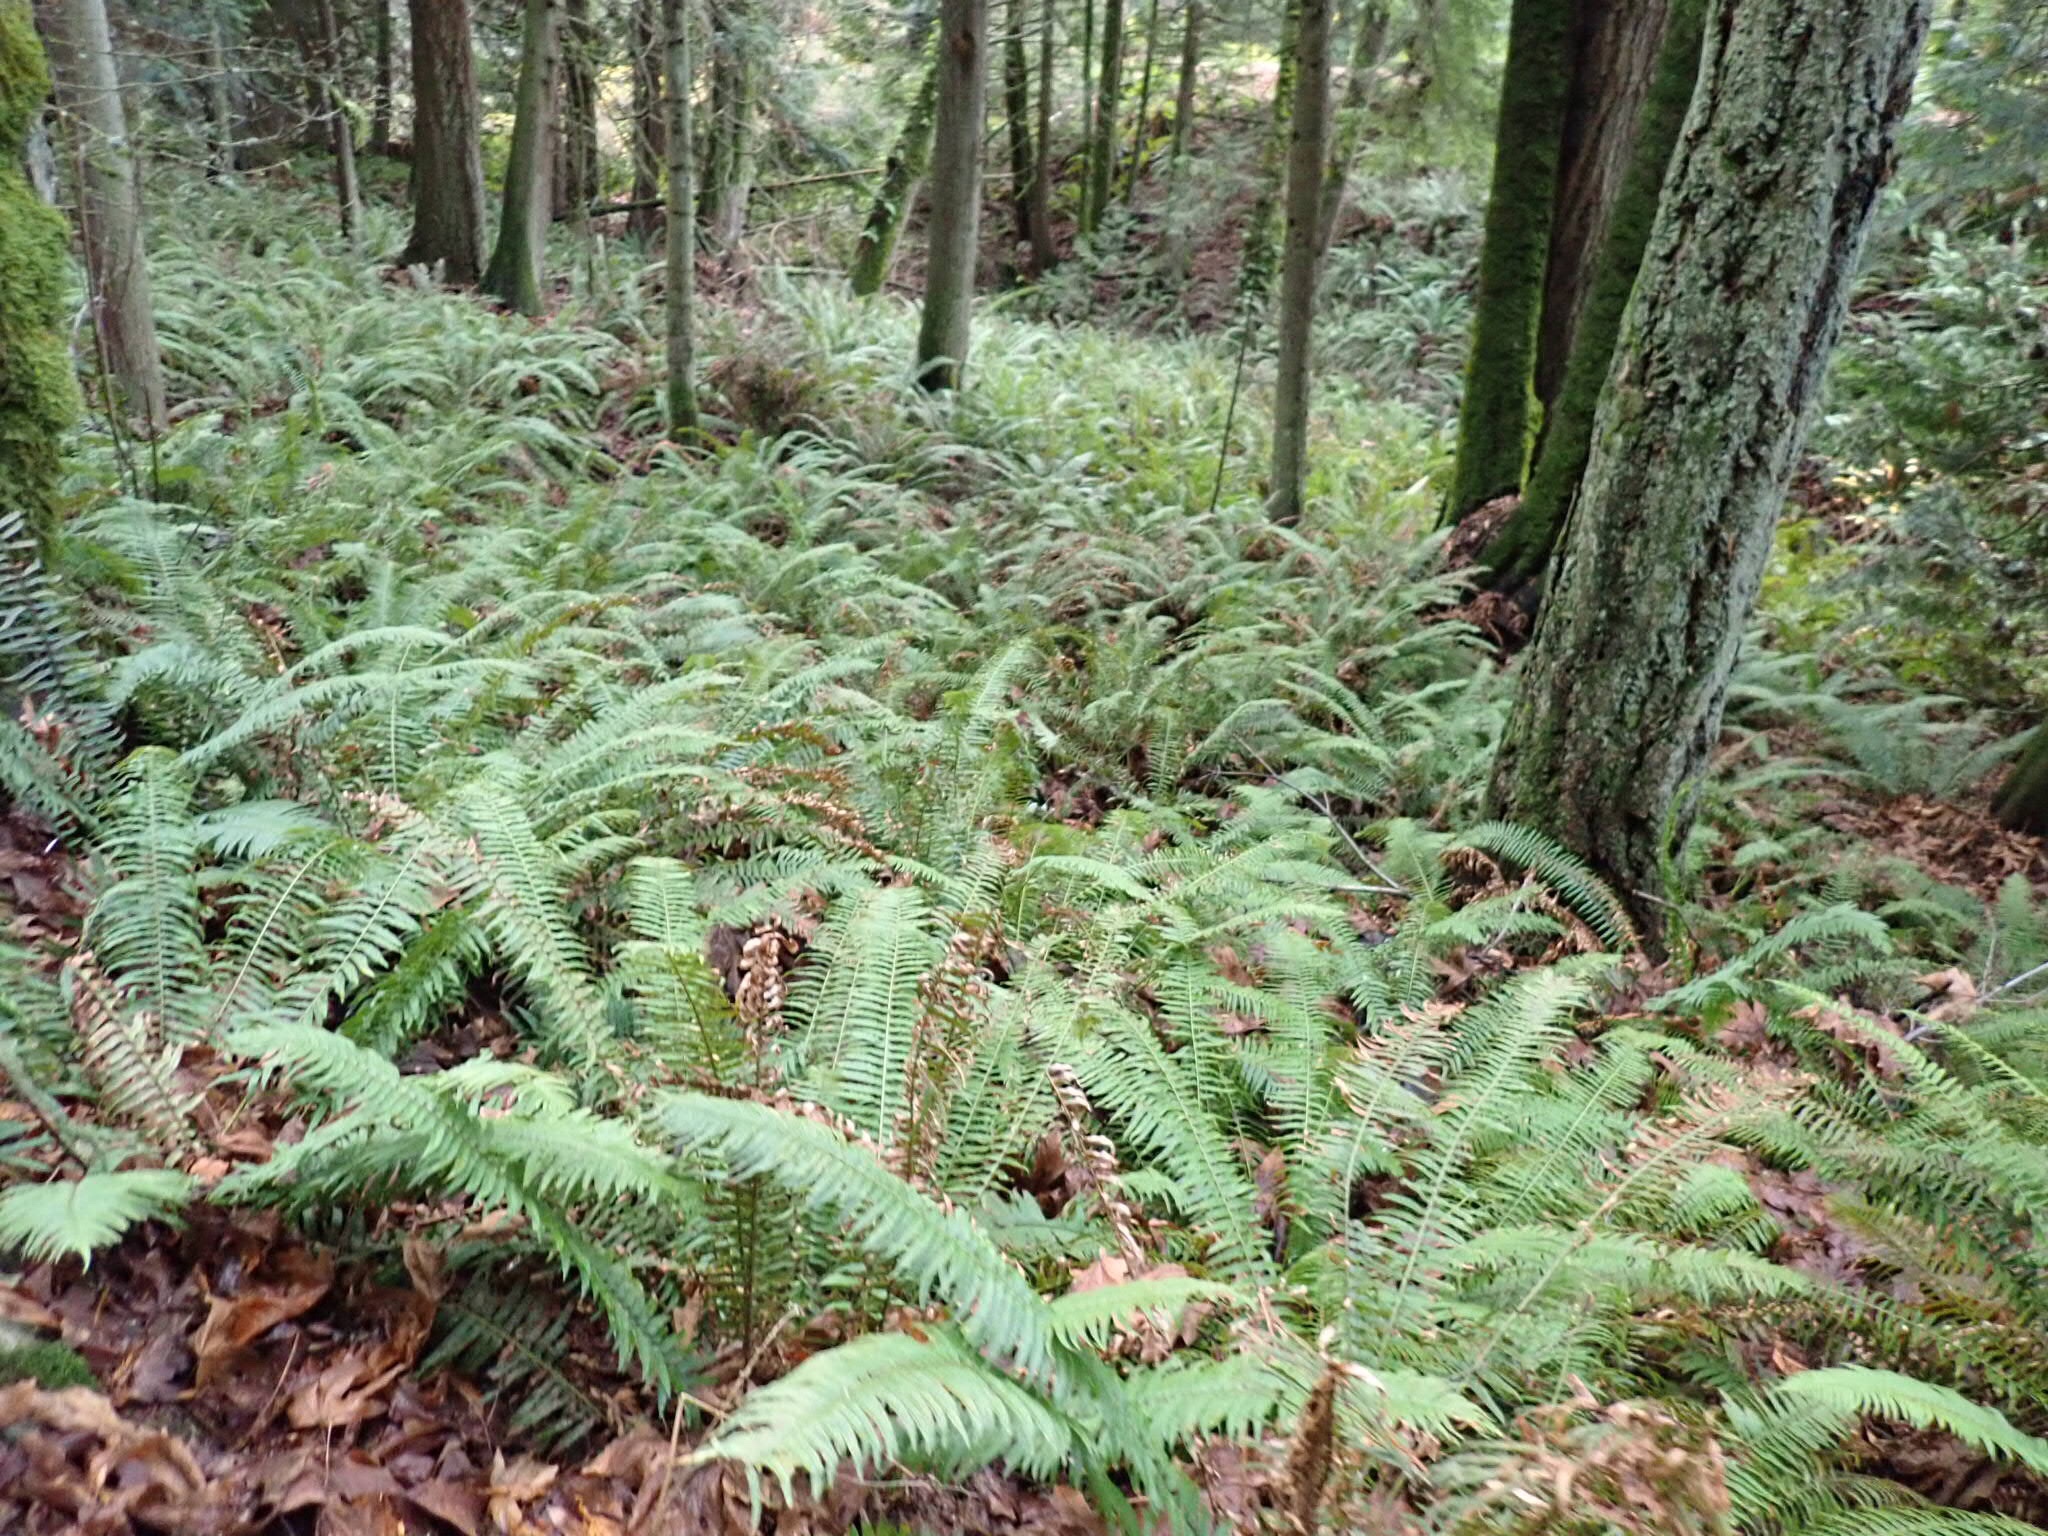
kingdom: Plantae
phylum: Tracheophyta
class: Polypodiopsida
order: Polypodiales
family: Dryopteridaceae
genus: Polystichum
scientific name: Polystichum munitum
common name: Western sword-fern
